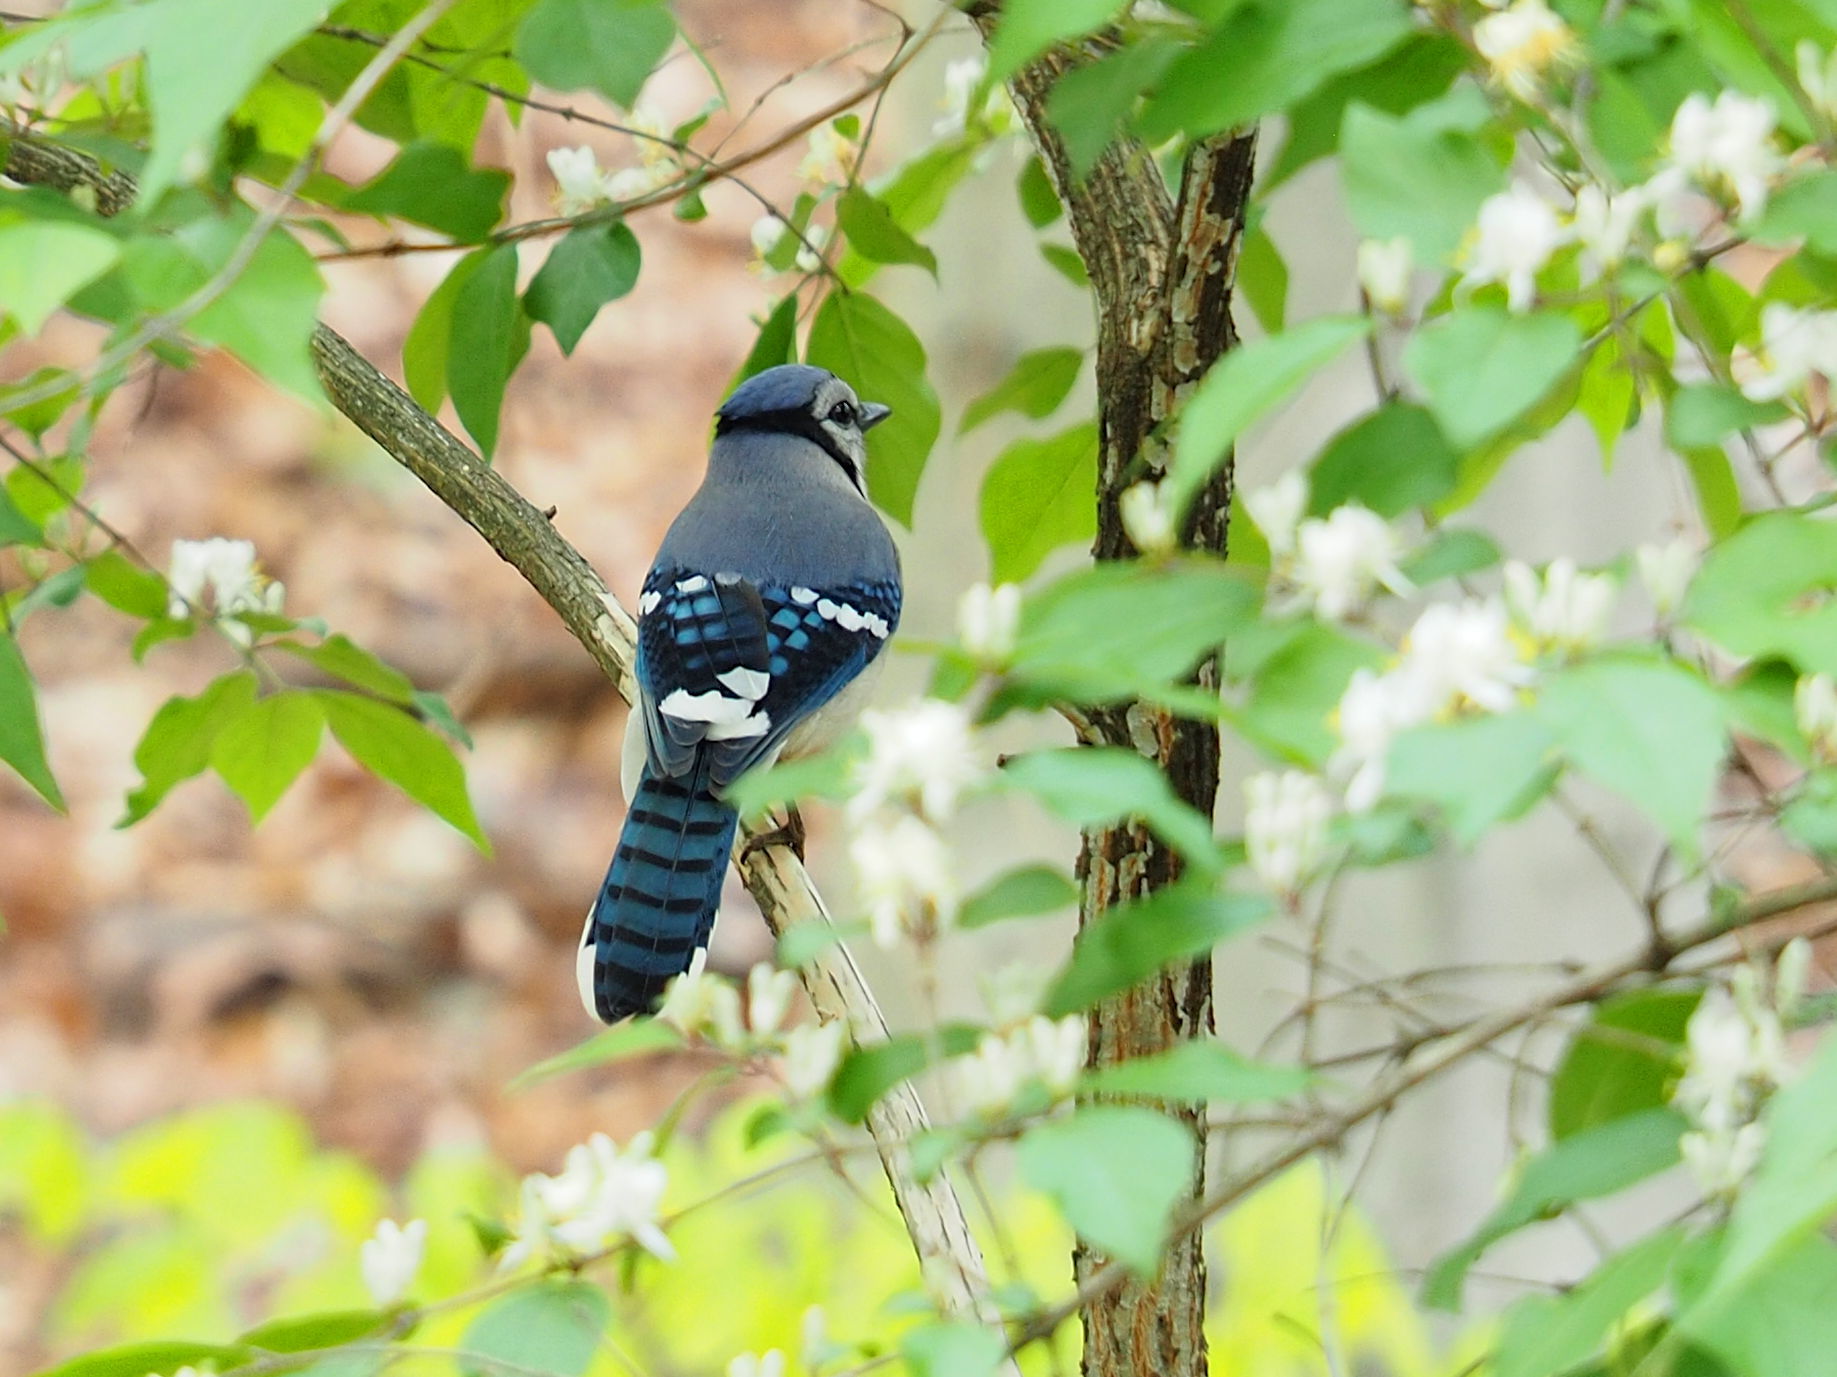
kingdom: Animalia
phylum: Chordata
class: Aves
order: Passeriformes
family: Corvidae
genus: Cyanocitta
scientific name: Cyanocitta cristata
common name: Blue jay
